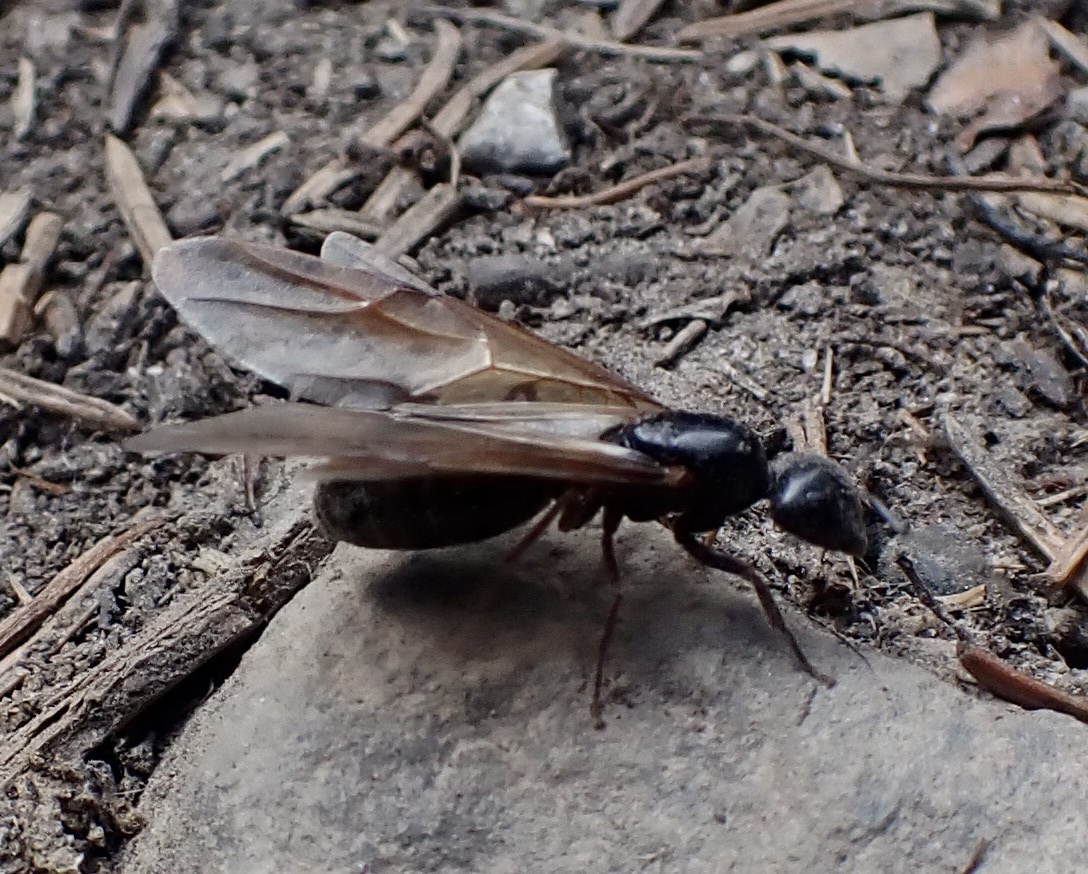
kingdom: Animalia
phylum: Arthropoda
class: Insecta
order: Hymenoptera
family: Formicidae
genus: Camponotus
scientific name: Camponotus herculeanus
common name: Hercules ant
